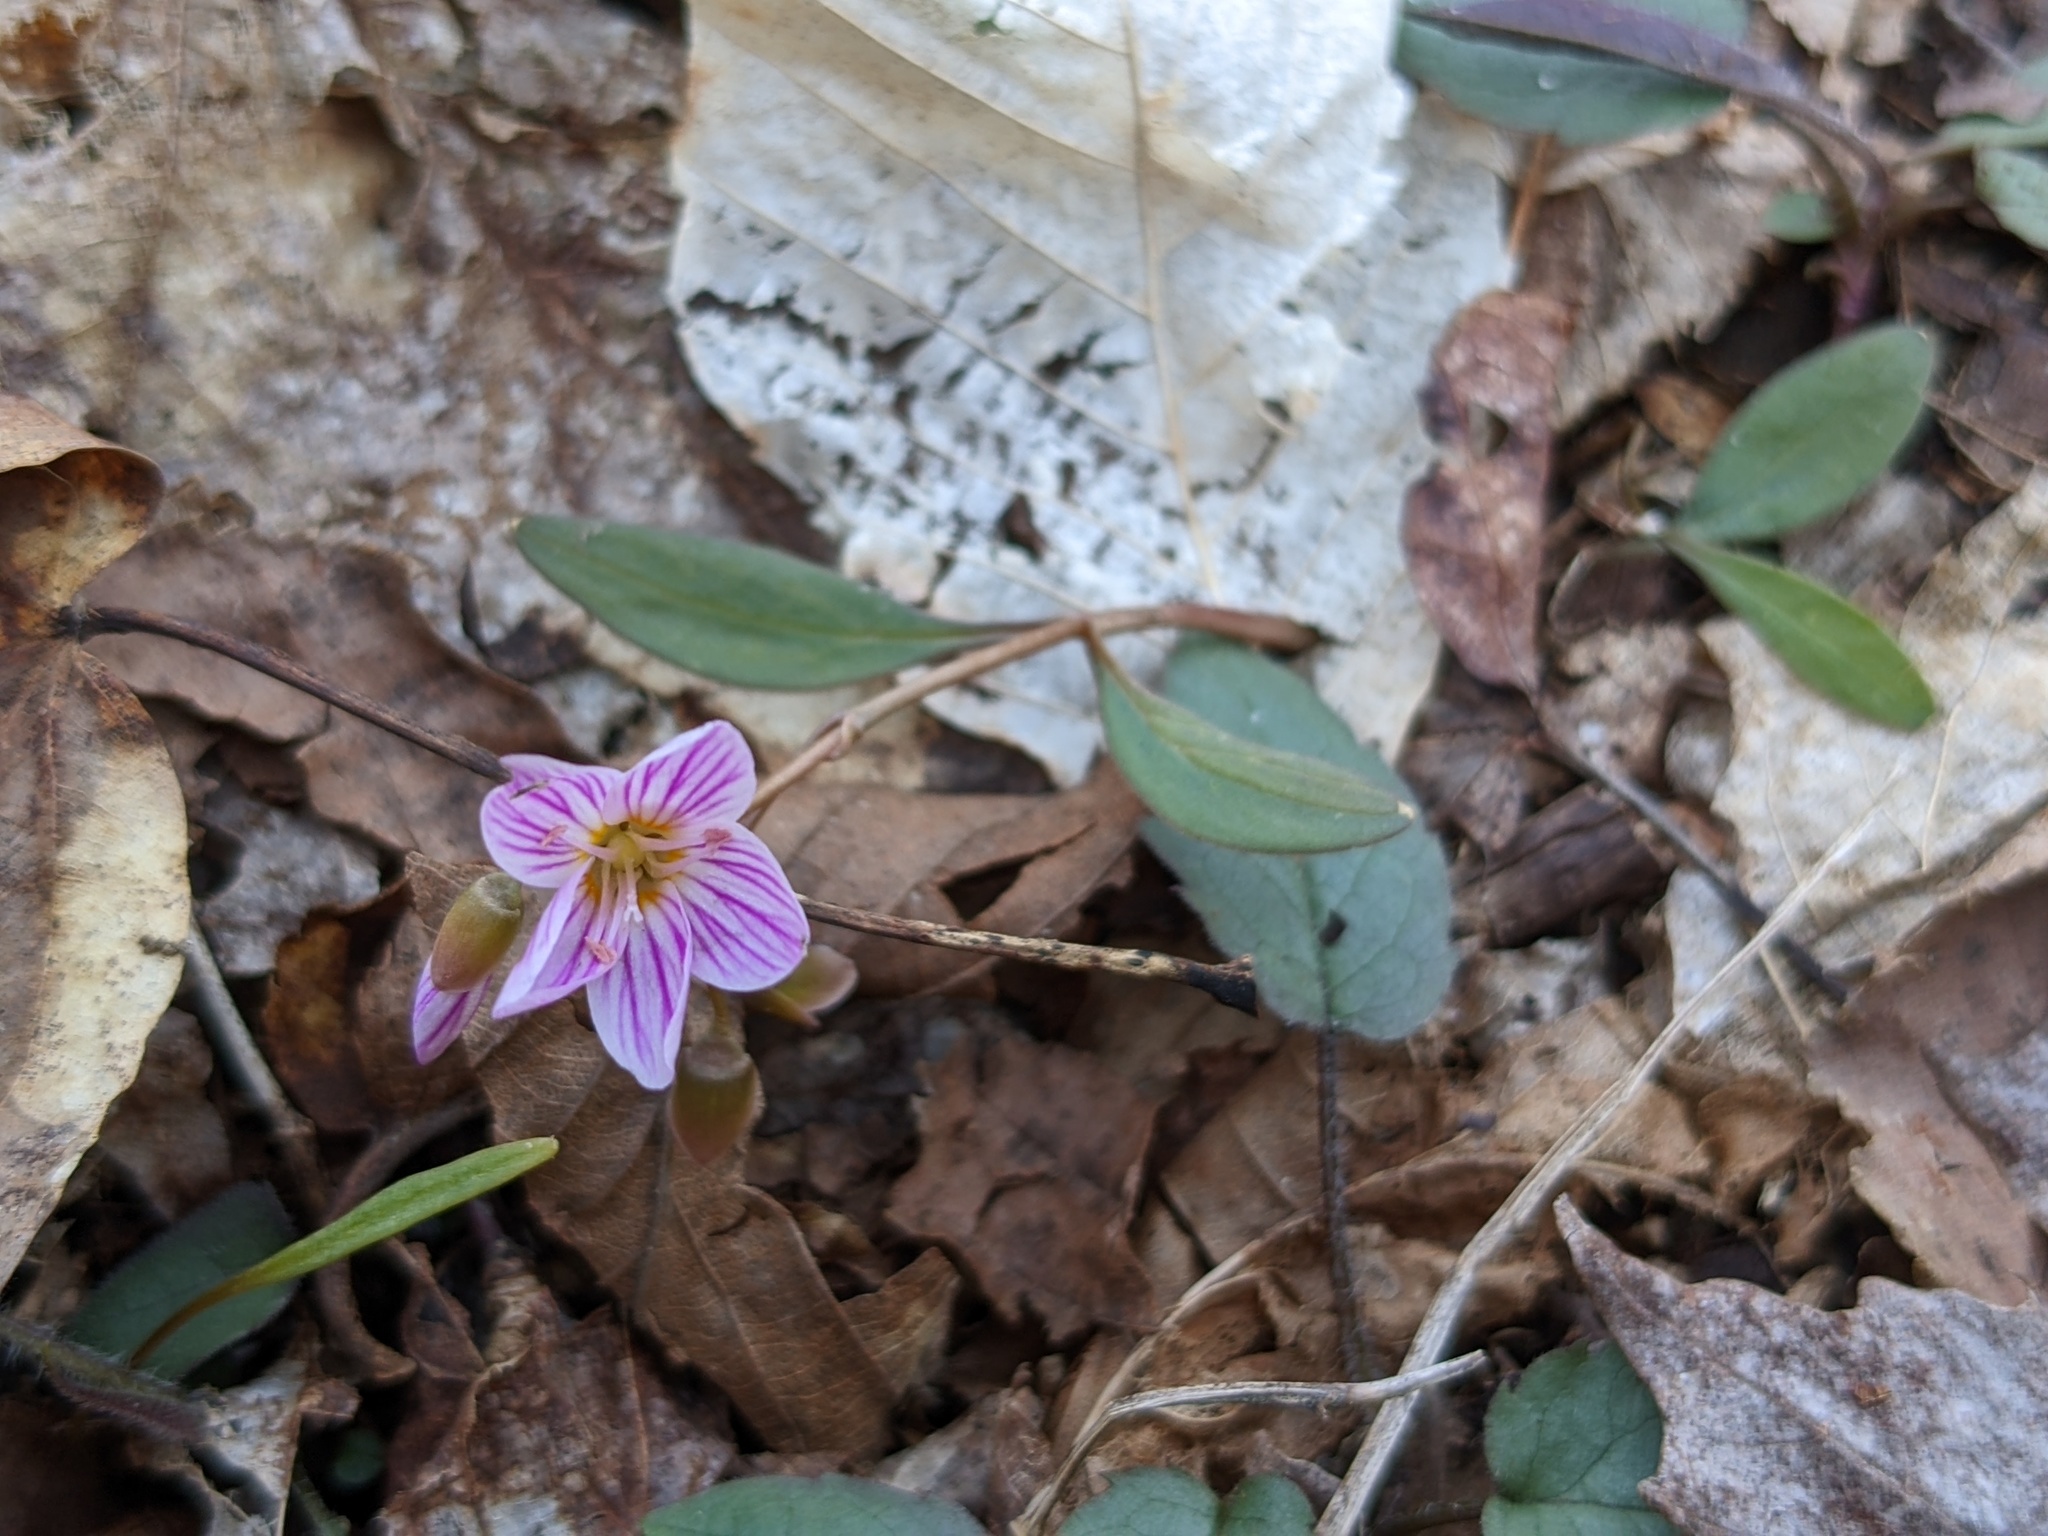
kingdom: Plantae
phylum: Tracheophyta
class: Magnoliopsida
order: Caryophyllales
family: Montiaceae
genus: Claytonia
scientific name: Claytonia caroliniana
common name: Carolina spring beauty
